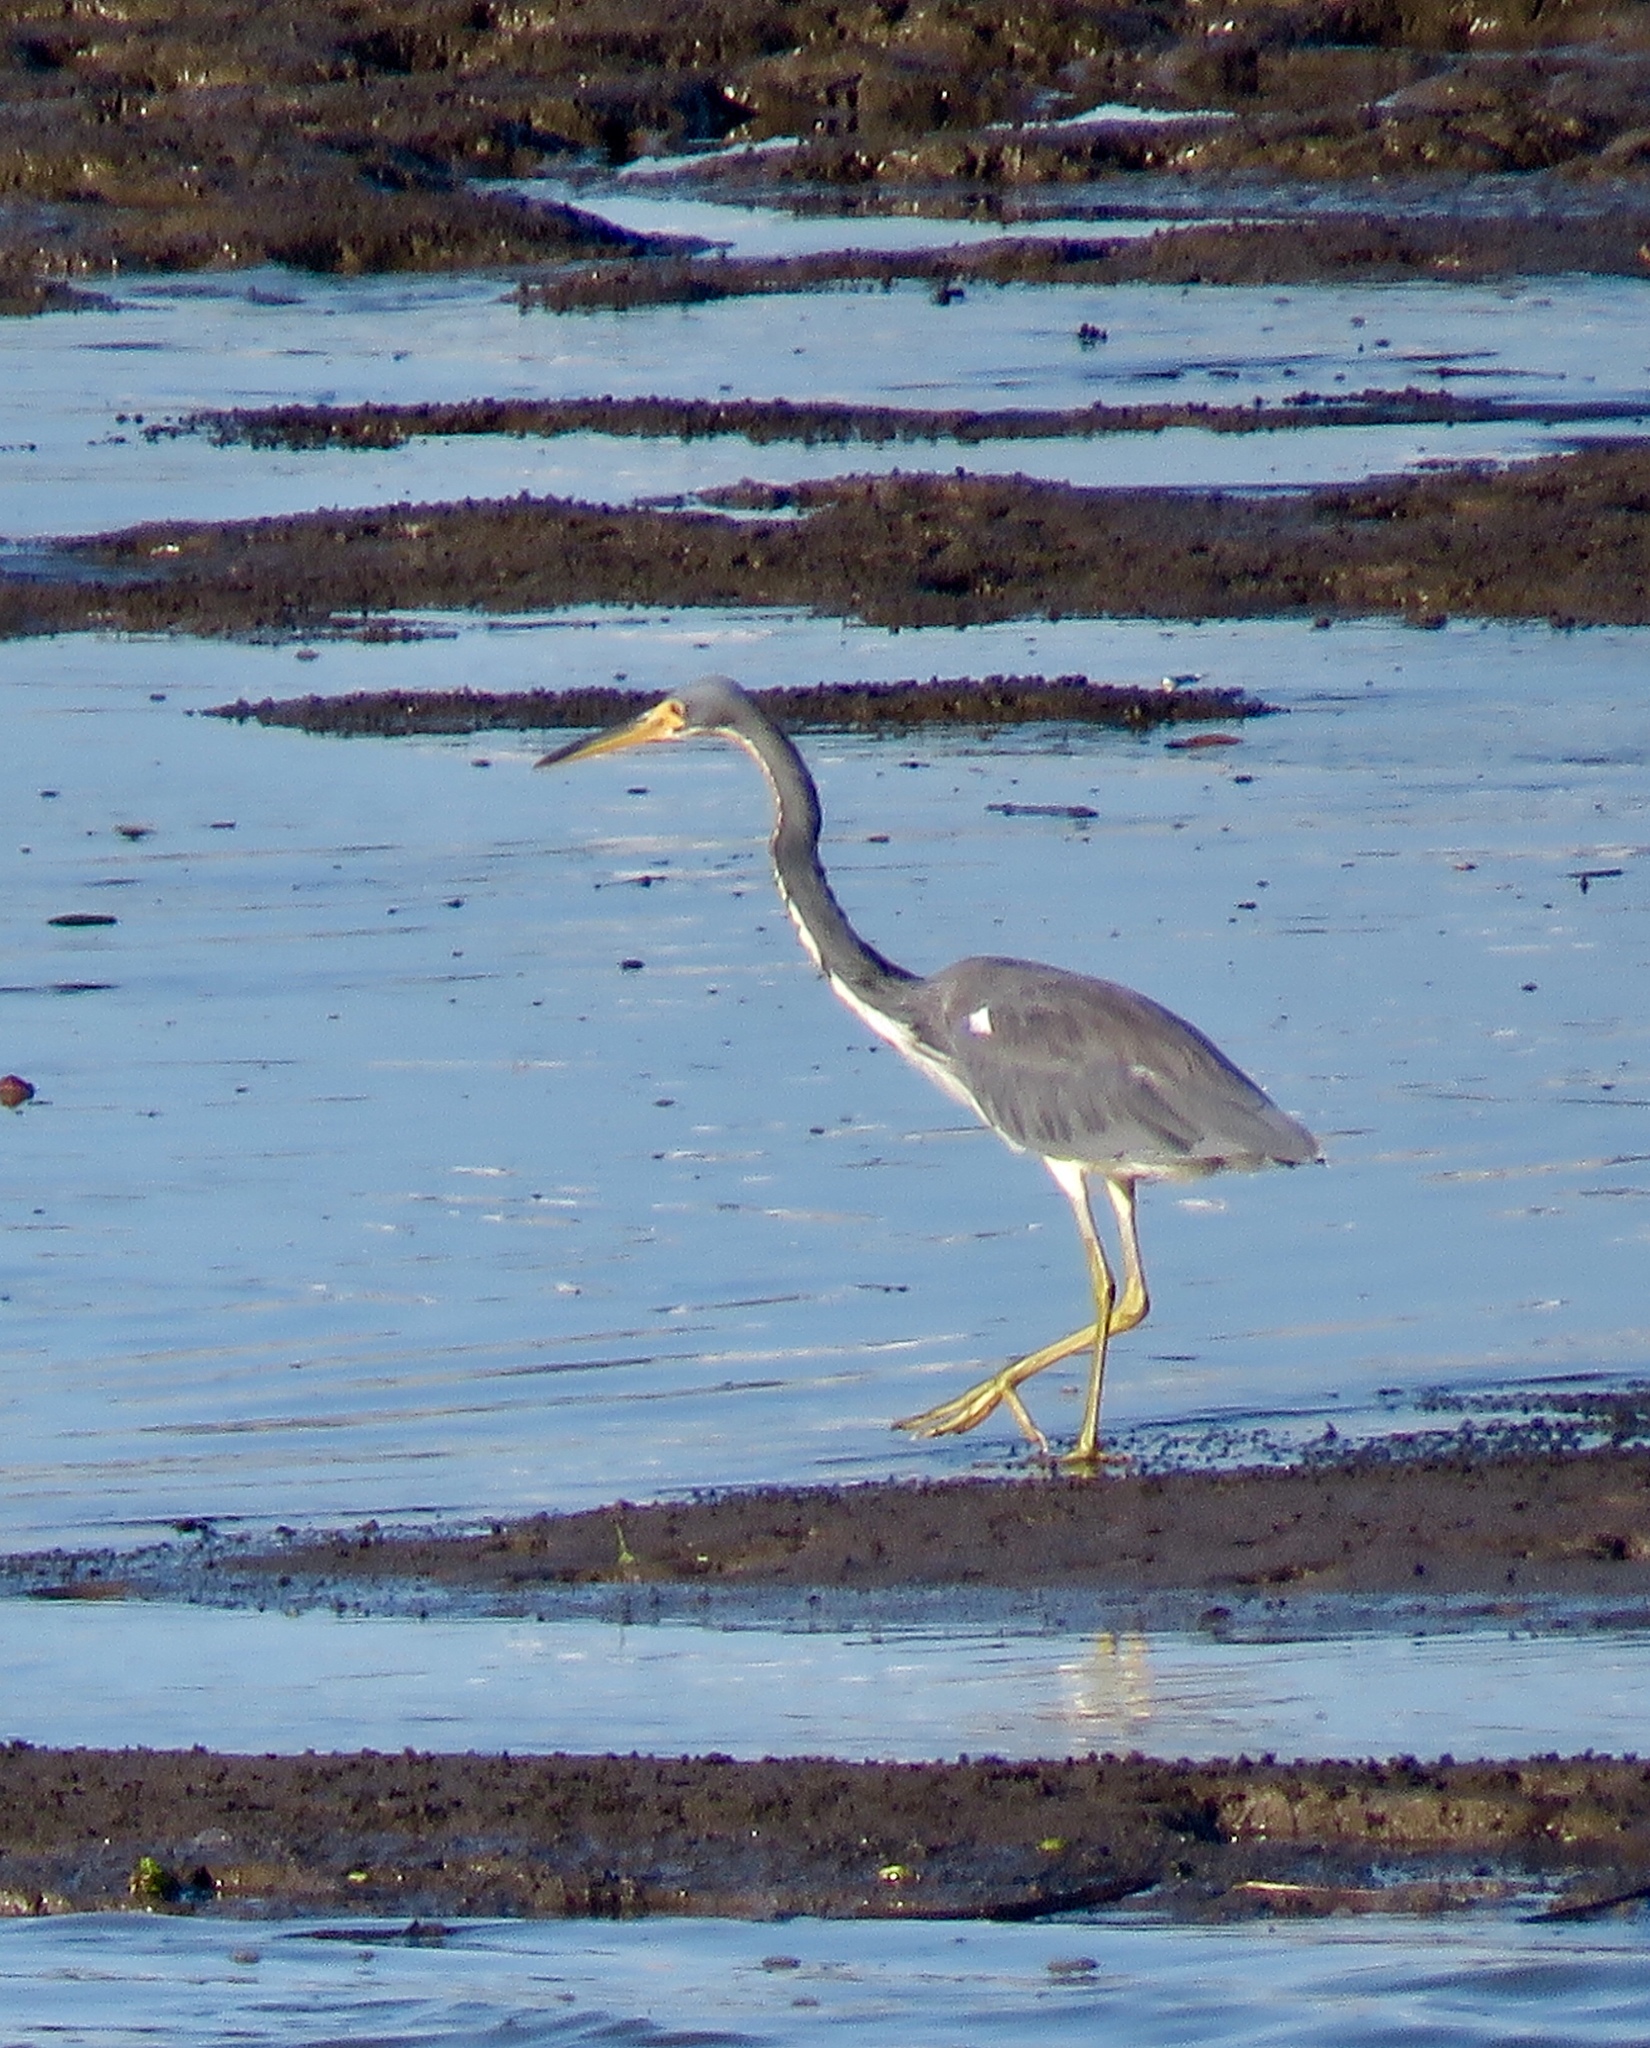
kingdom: Animalia
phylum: Chordata
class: Aves
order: Pelecaniformes
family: Ardeidae
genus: Egretta
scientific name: Egretta tricolor
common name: Tricolored heron
